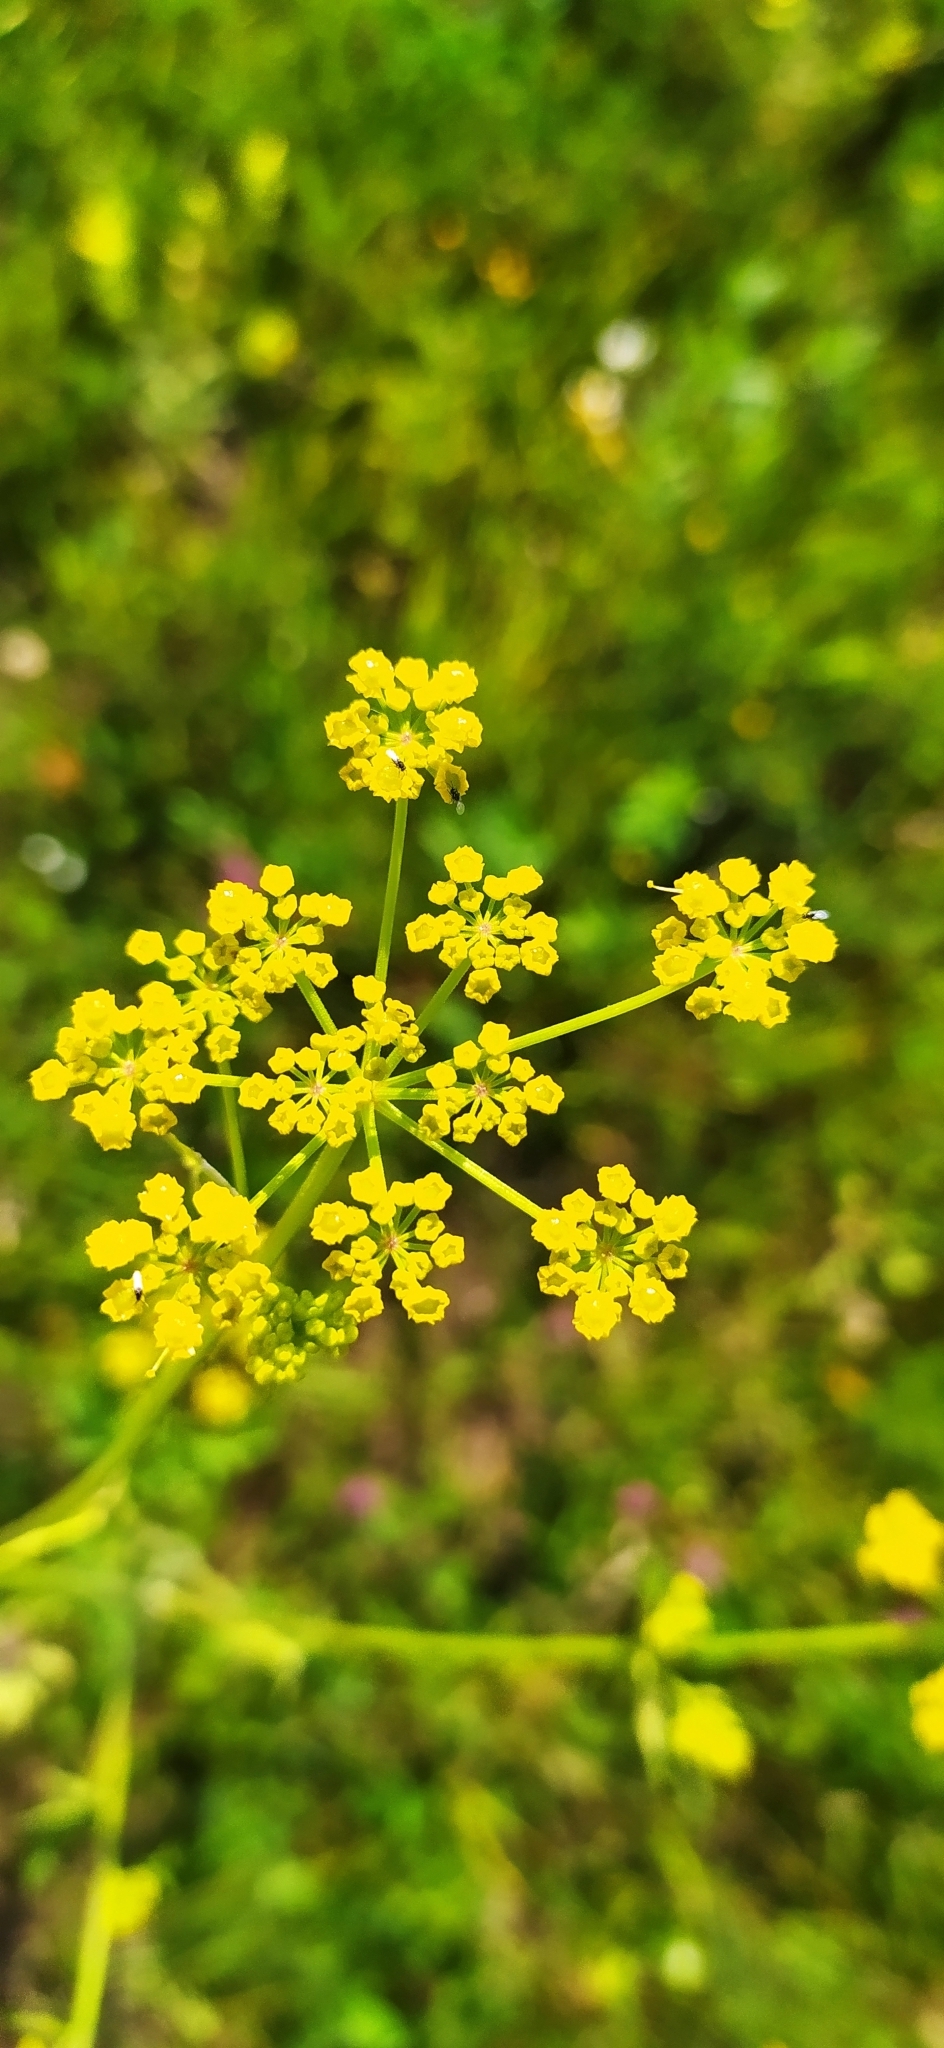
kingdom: Plantae
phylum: Tracheophyta
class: Magnoliopsida
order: Apiales
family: Apiaceae
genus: Pastinaca
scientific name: Pastinaca sativa
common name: Wild parsnip
